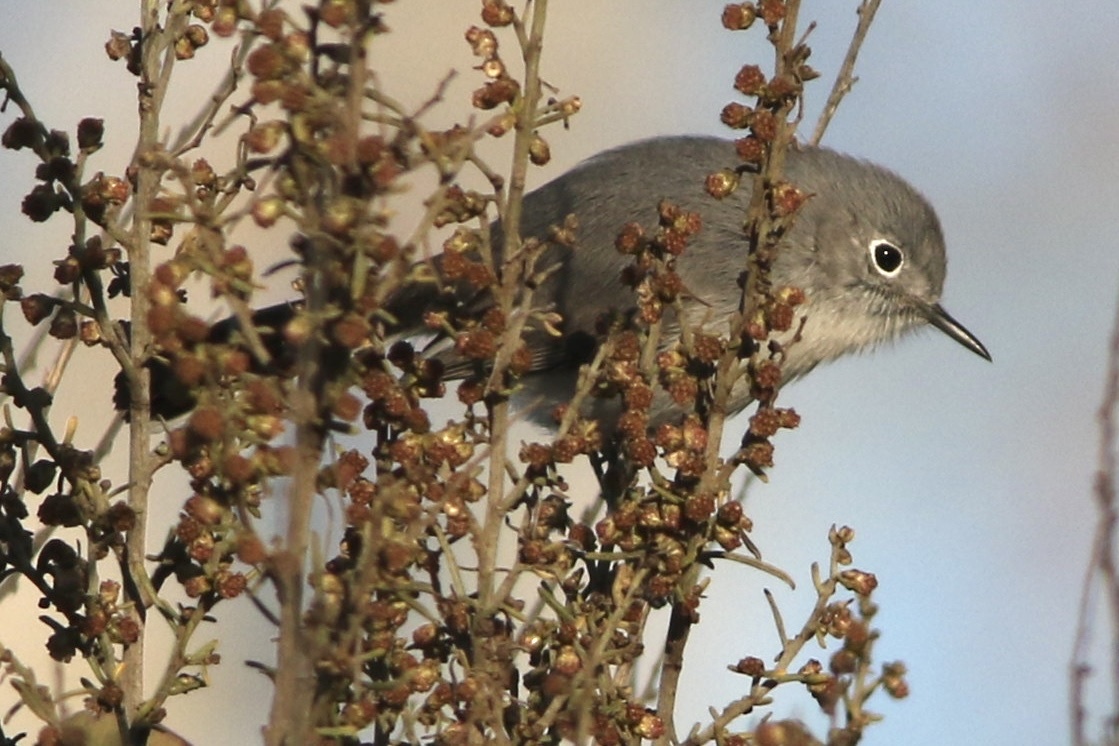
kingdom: Animalia
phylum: Chordata
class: Aves
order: Passeriformes
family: Polioptilidae
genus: Polioptila
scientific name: Polioptila caerulea
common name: Blue-gray gnatcatcher
